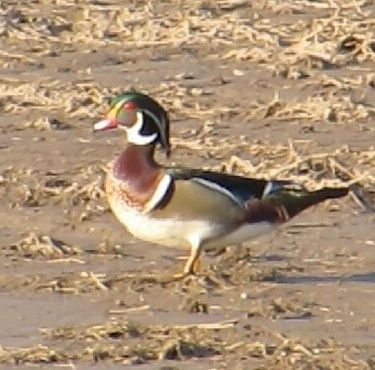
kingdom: Animalia
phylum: Chordata
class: Aves
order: Anseriformes
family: Anatidae
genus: Aix
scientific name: Aix sponsa
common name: Wood duck
